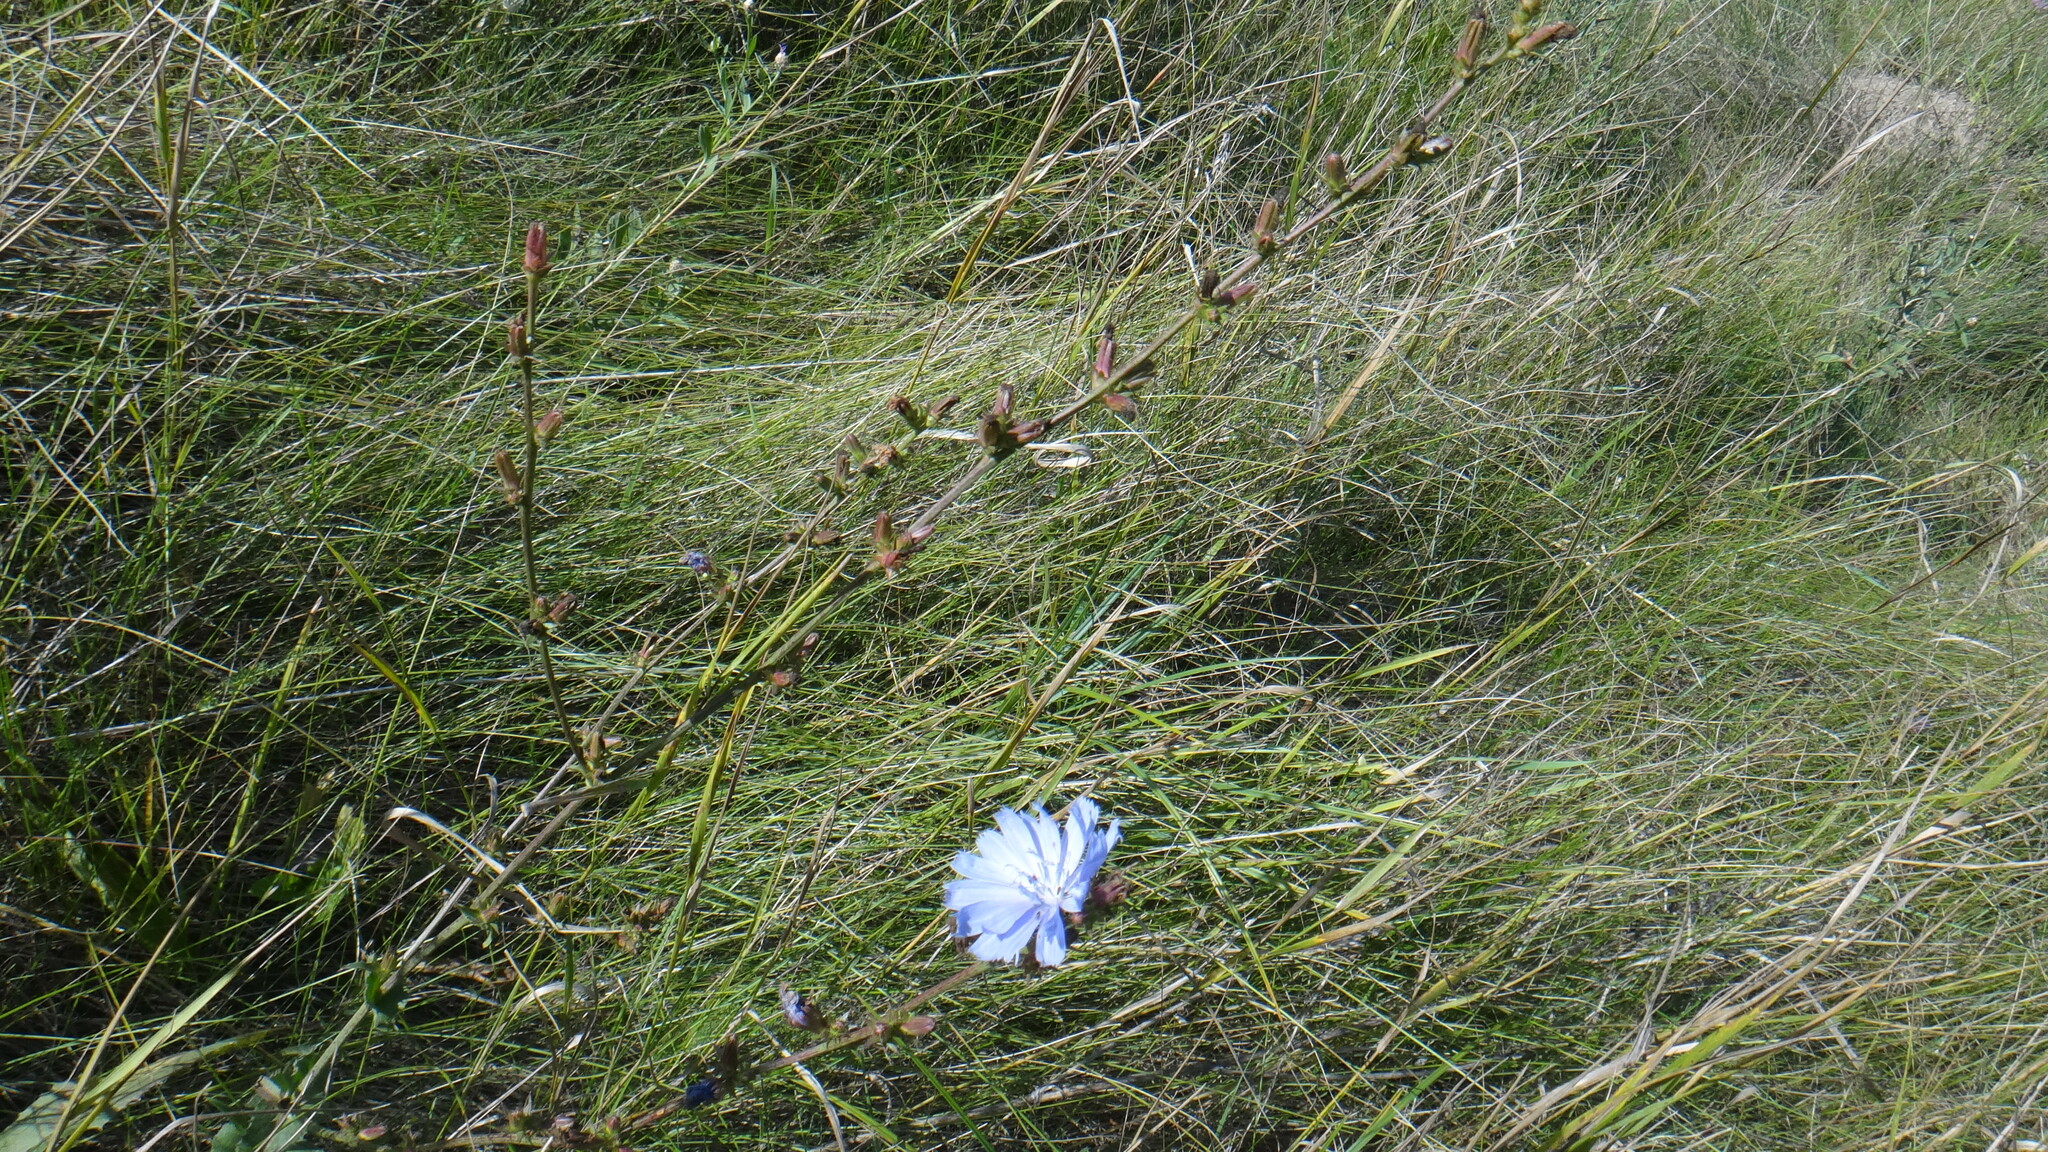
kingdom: Plantae
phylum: Tracheophyta
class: Magnoliopsida
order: Asterales
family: Asteraceae
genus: Cichorium
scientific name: Cichorium intybus
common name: Chicory
